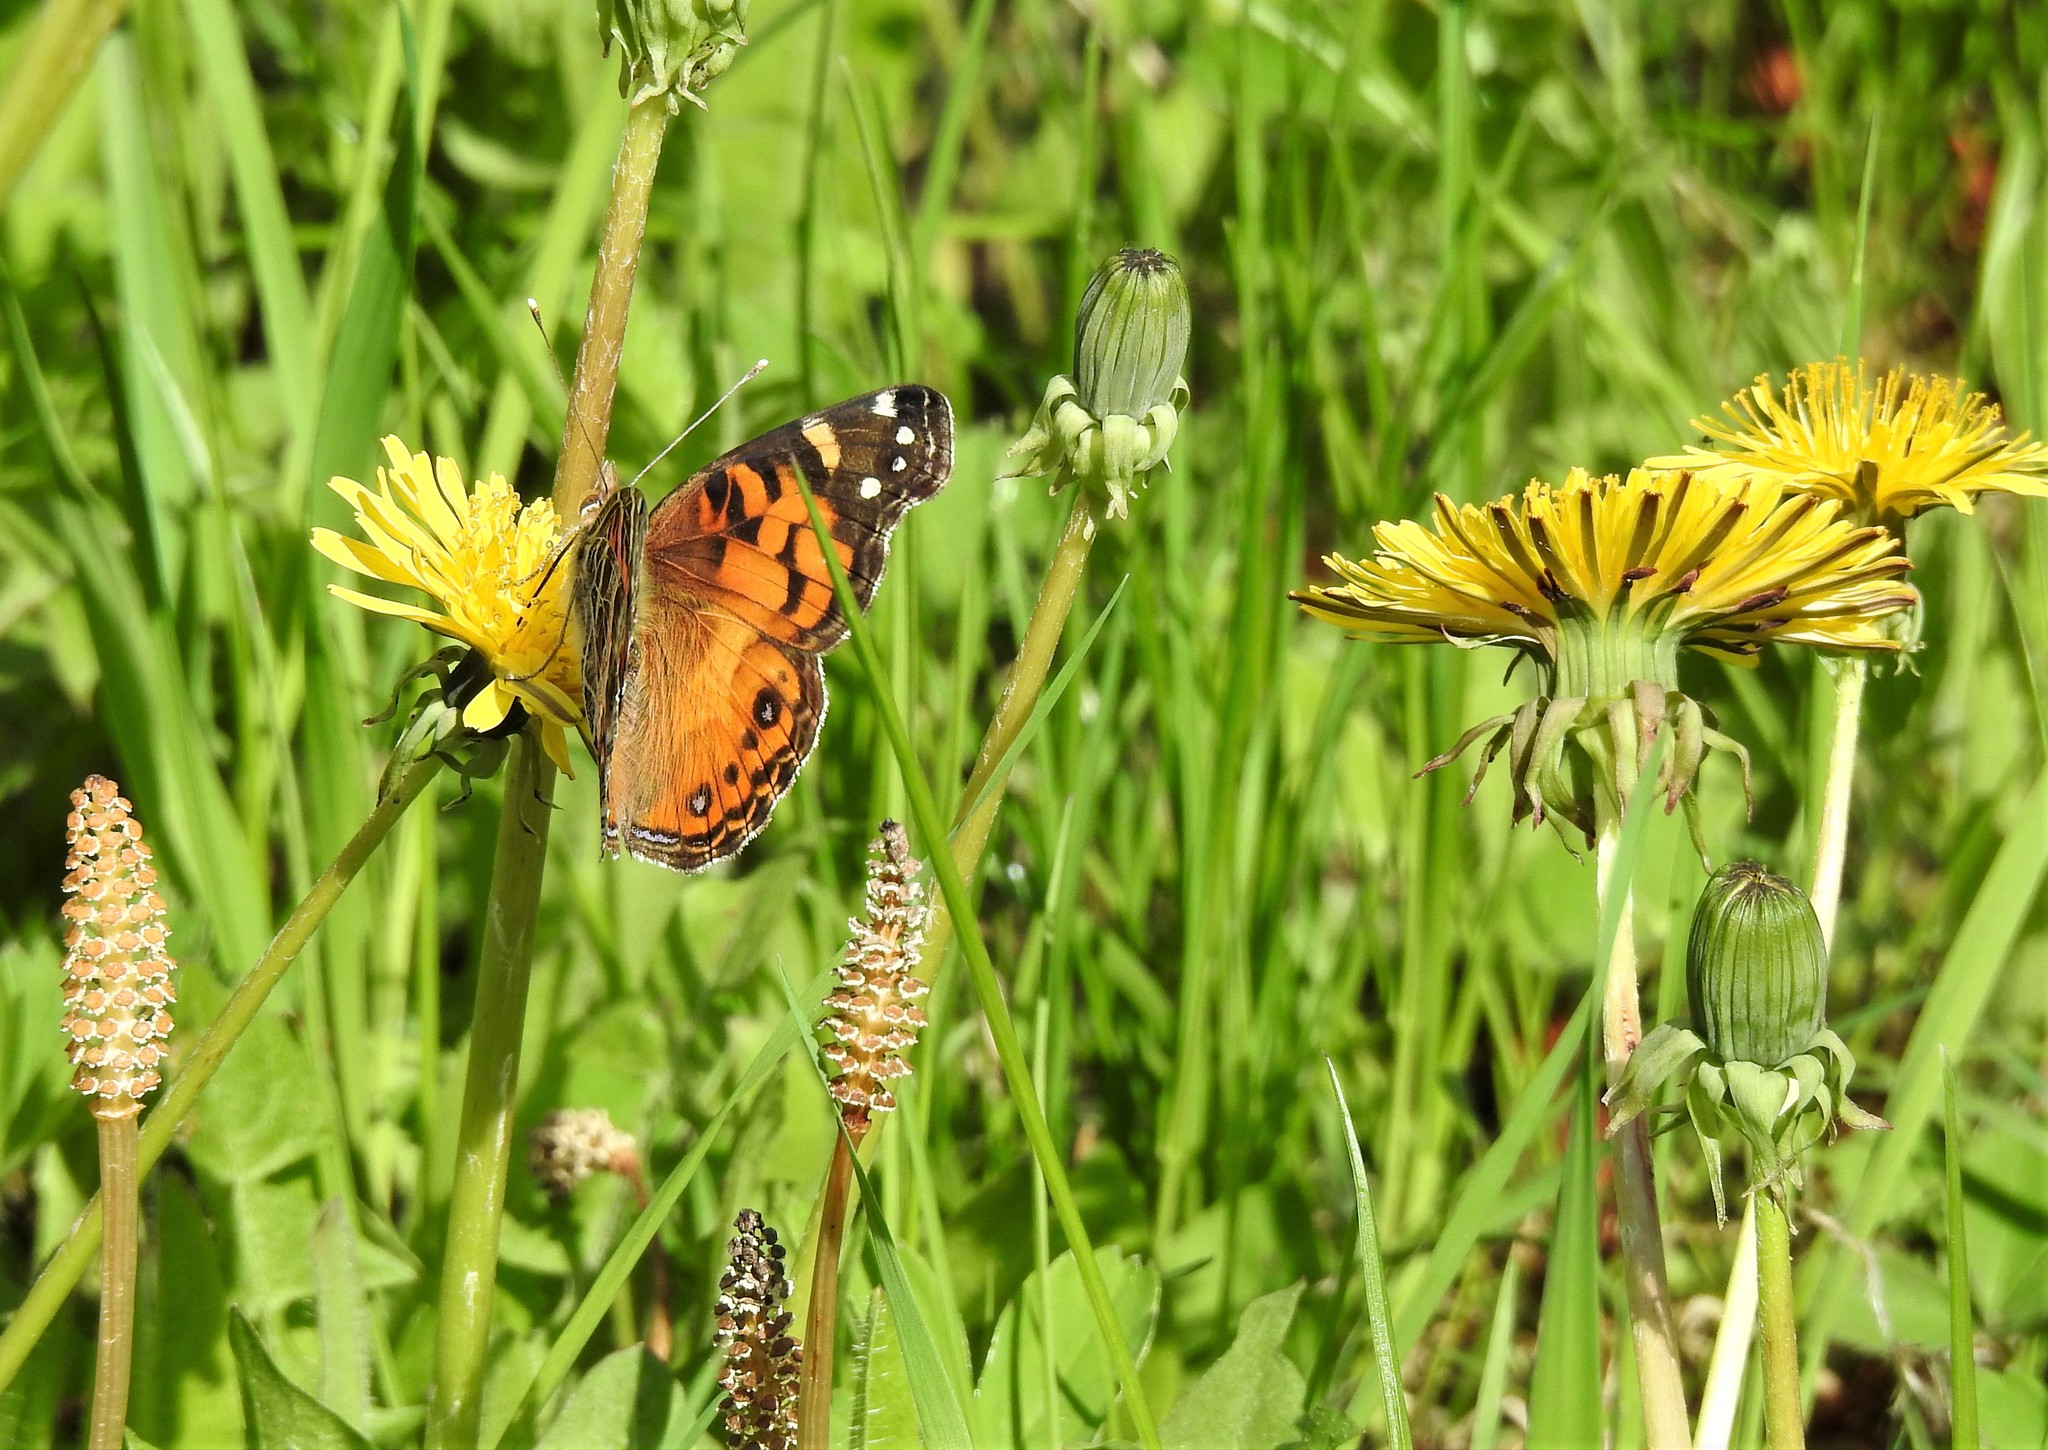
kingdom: Animalia
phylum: Arthropoda
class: Insecta
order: Lepidoptera
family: Nymphalidae
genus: Vanessa
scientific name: Vanessa virginiensis
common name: American lady
